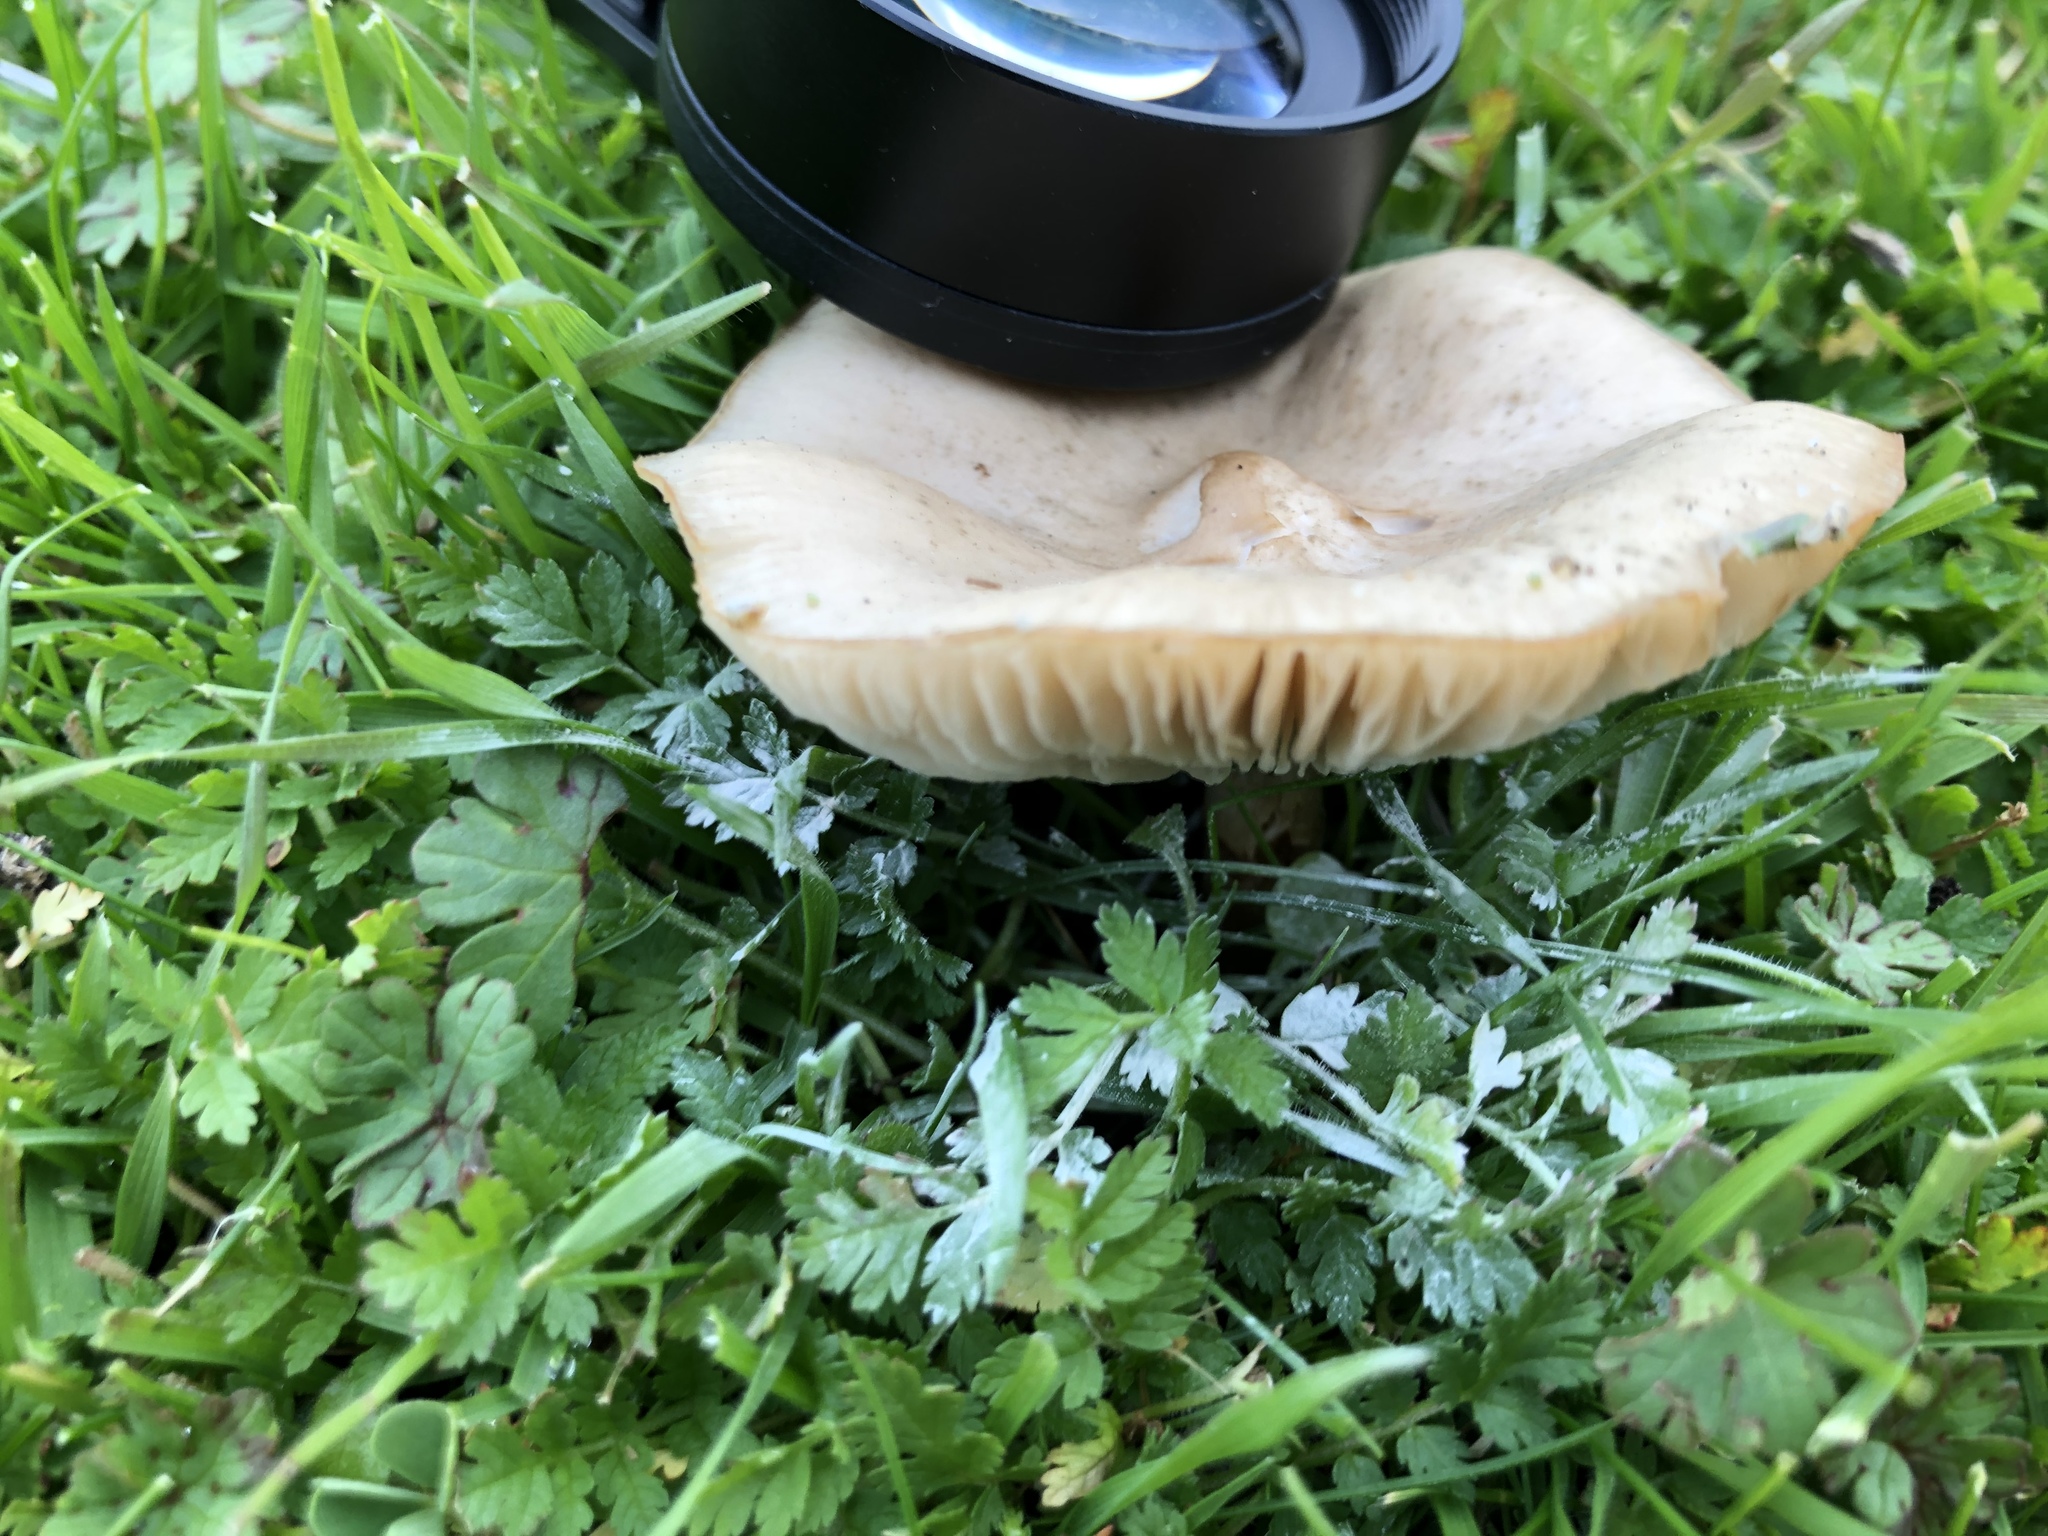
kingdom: Fungi
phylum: Basidiomycota
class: Agaricomycetes
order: Agaricales
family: Pluteaceae
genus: Volvopluteus
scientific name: Volvopluteus gloiocephalus
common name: Stubble rosegill
